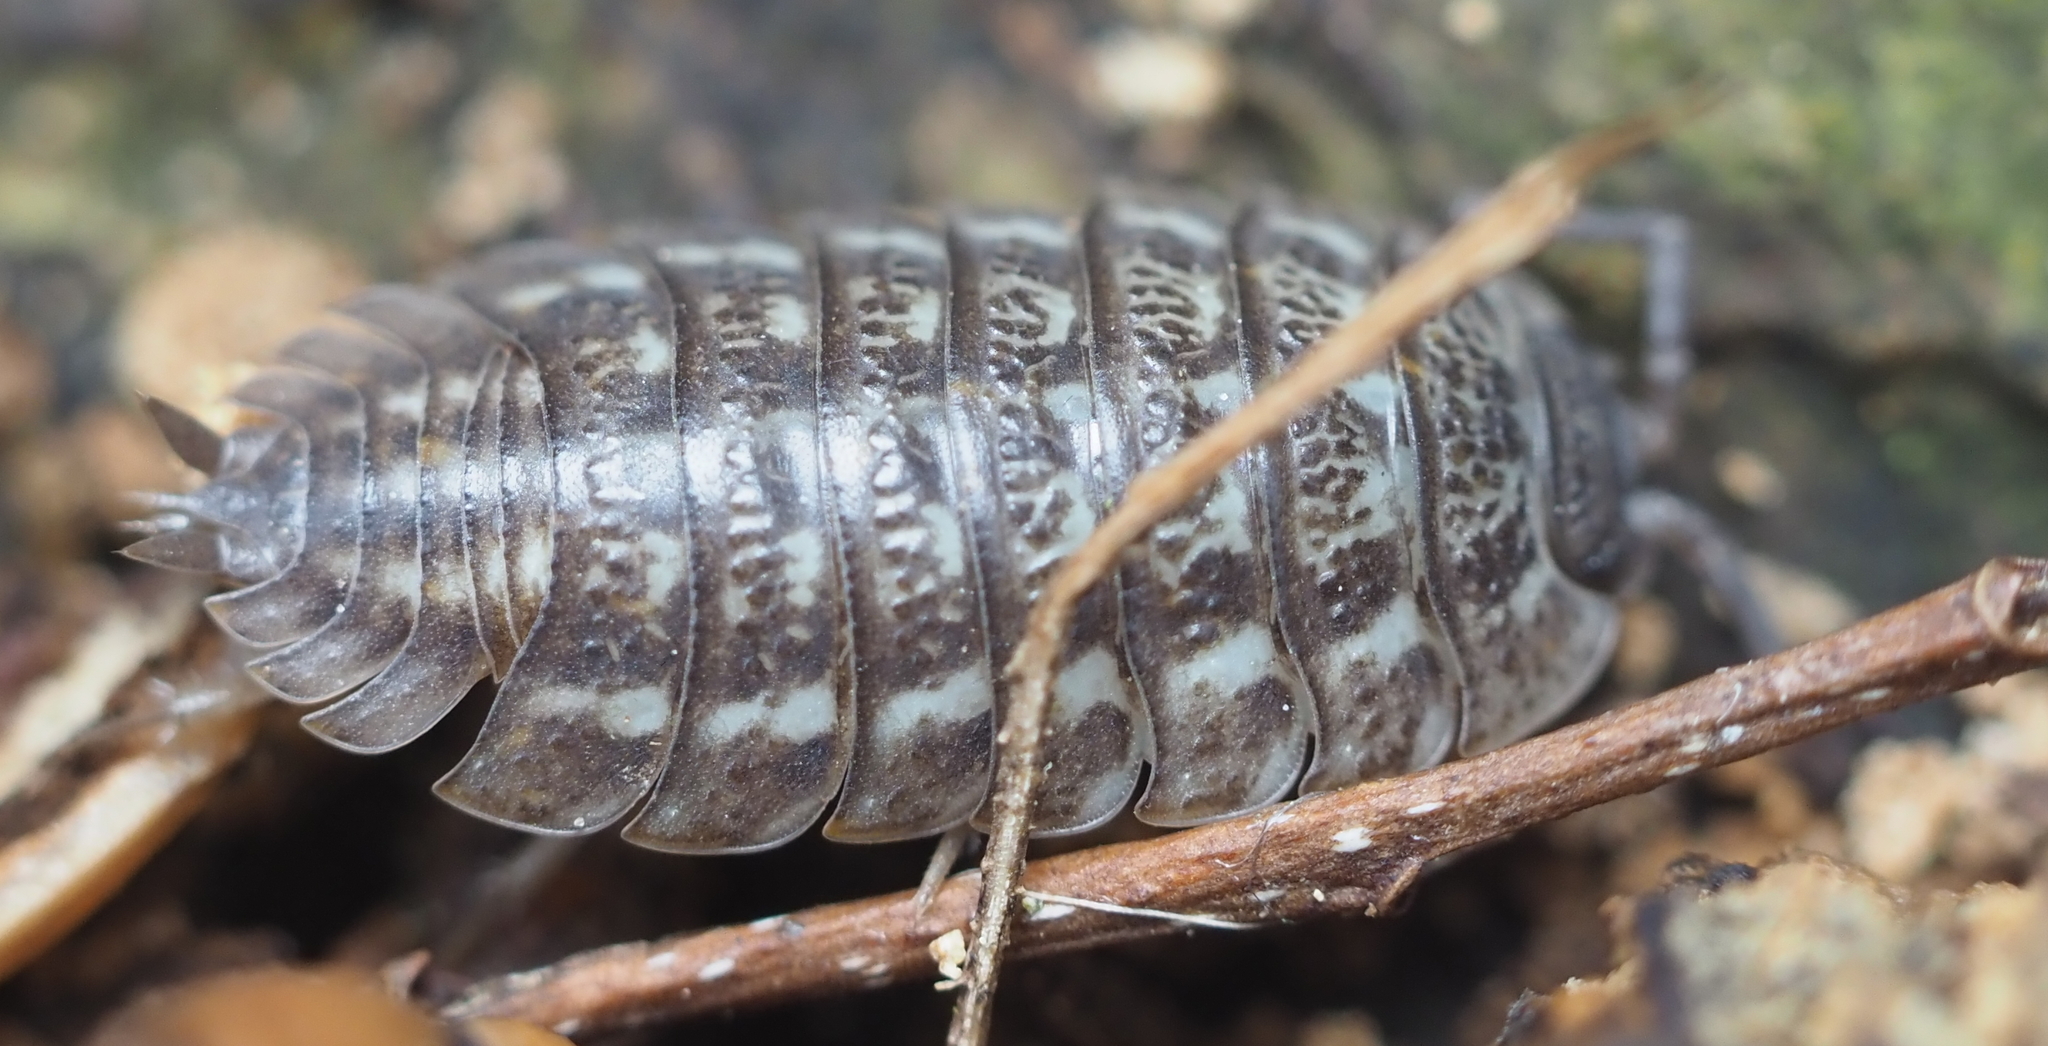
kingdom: Animalia
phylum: Arthropoda
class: Malacostraca
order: Isopoda
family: Trachelipodidae
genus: Trachelipus
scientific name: Trachelipus rathkii
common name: Isopod
